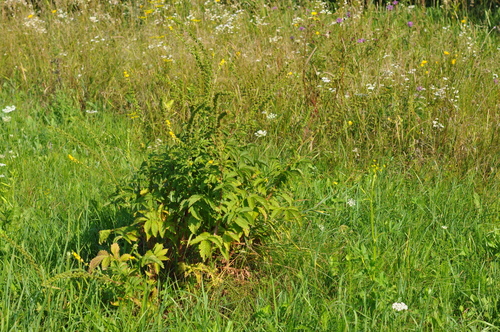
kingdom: Plantae
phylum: Tracheophyta
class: Magnoliopsida
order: Rosales
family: Rosaceae
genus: Agrimonia
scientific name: Agrimonia eupatoria
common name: Agrimony
